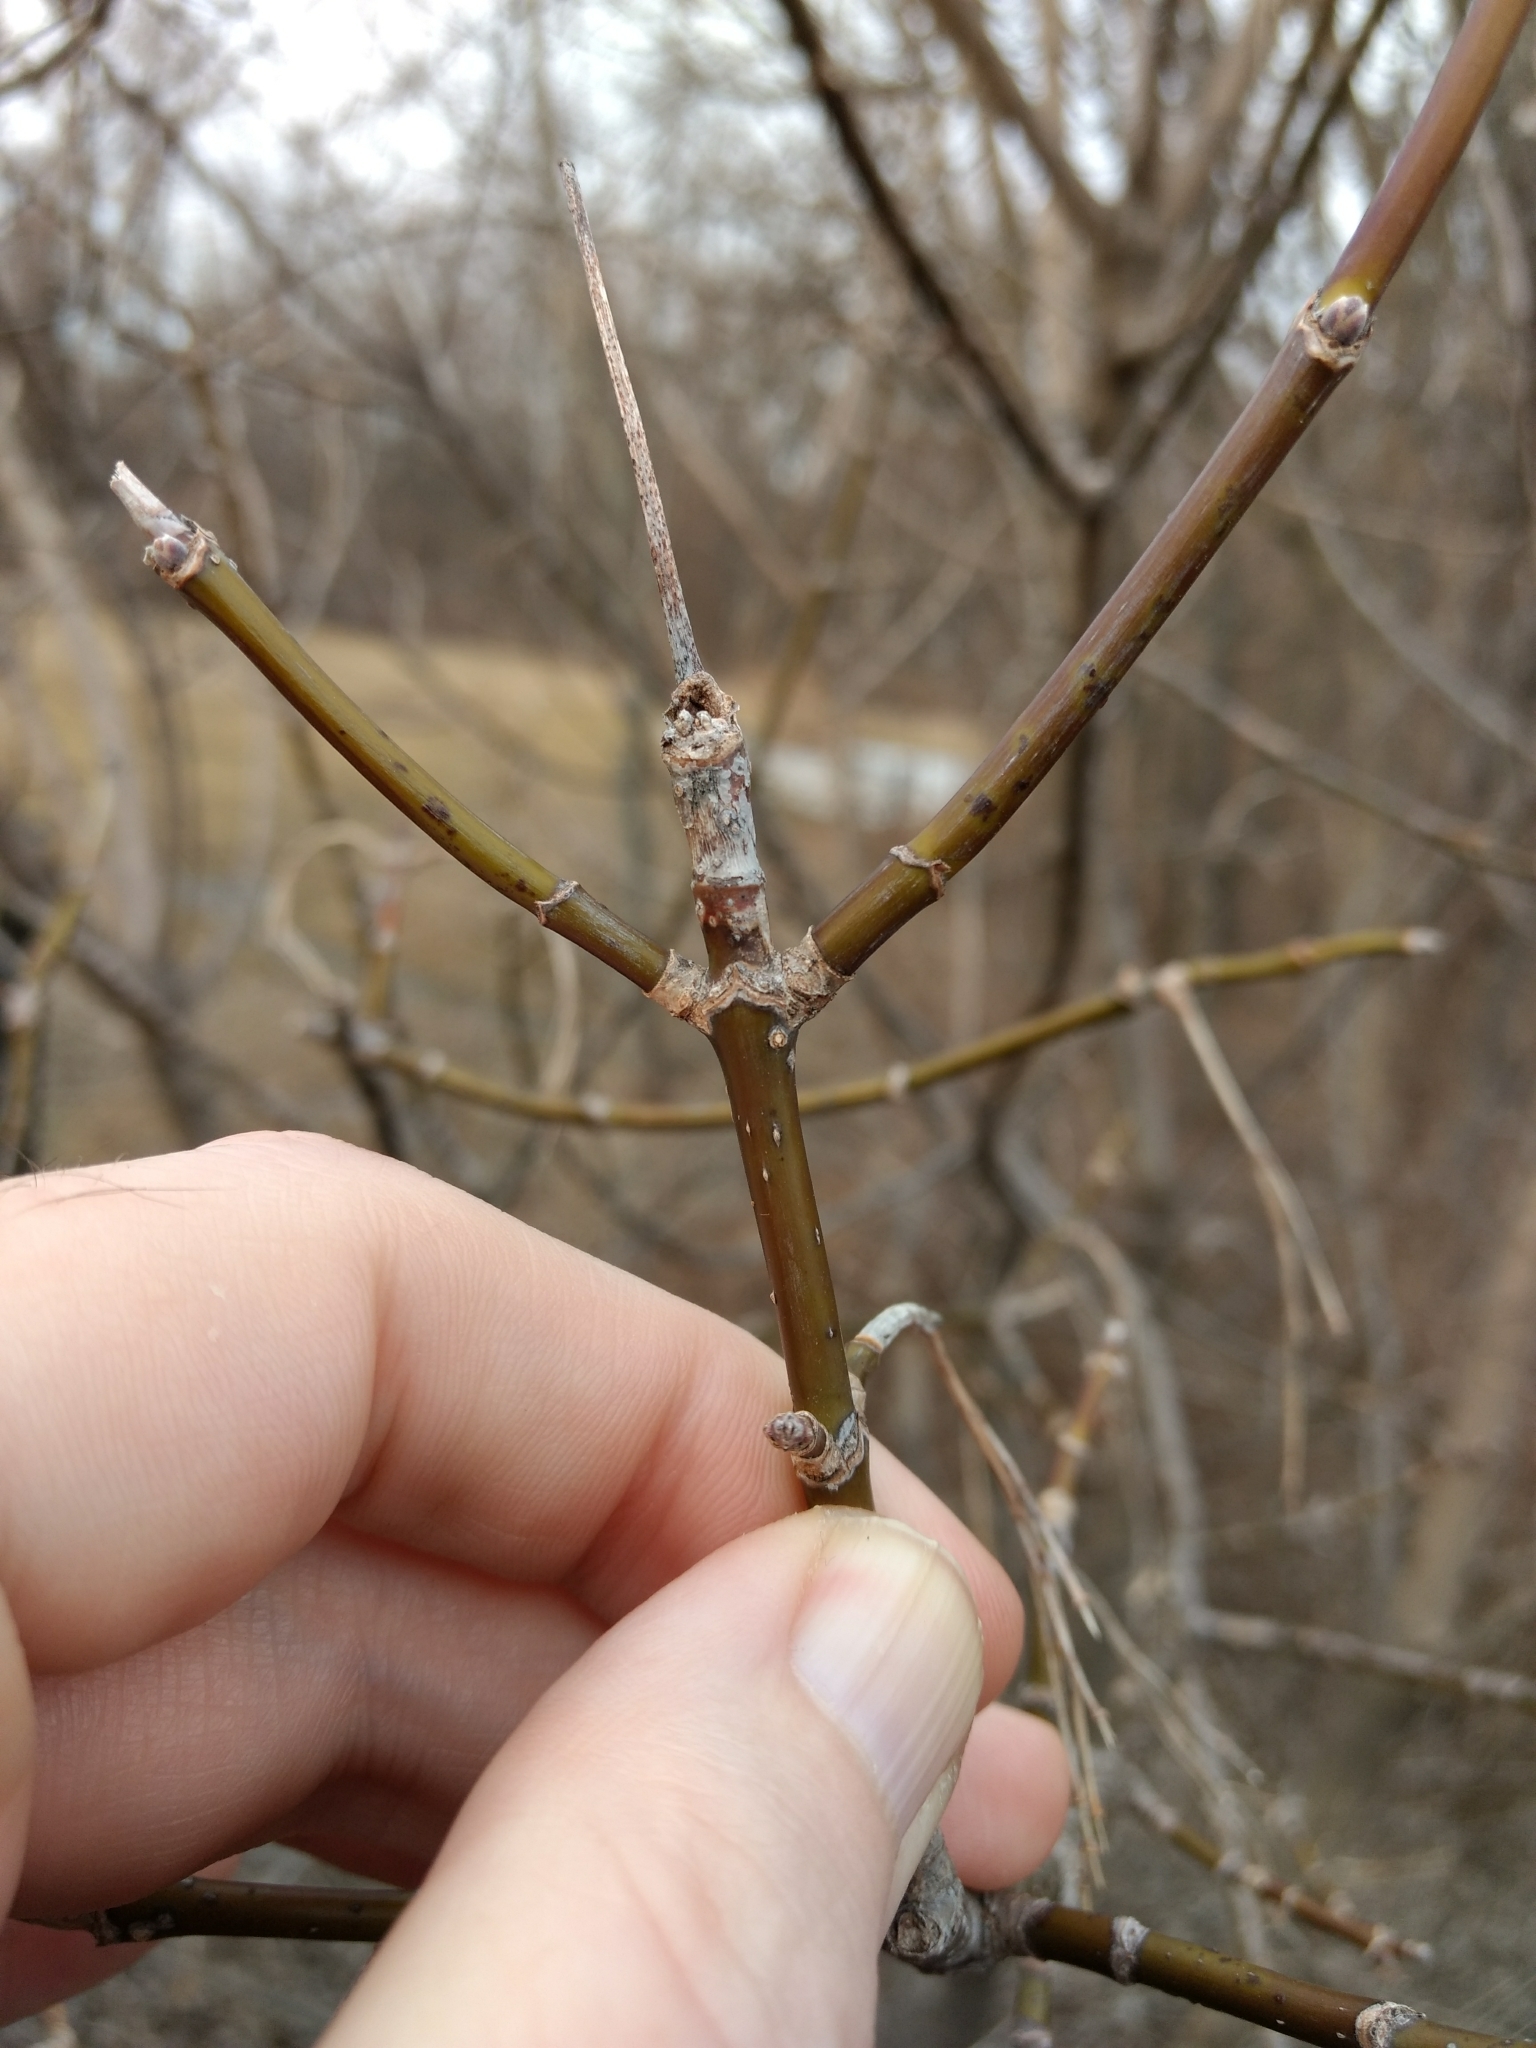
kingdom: Plantae
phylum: Tracheophyta
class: Magnoliopsida
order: Sapindales
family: Sapindaceae
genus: Acer
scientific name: Acer negundo
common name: Ashleaf maple
